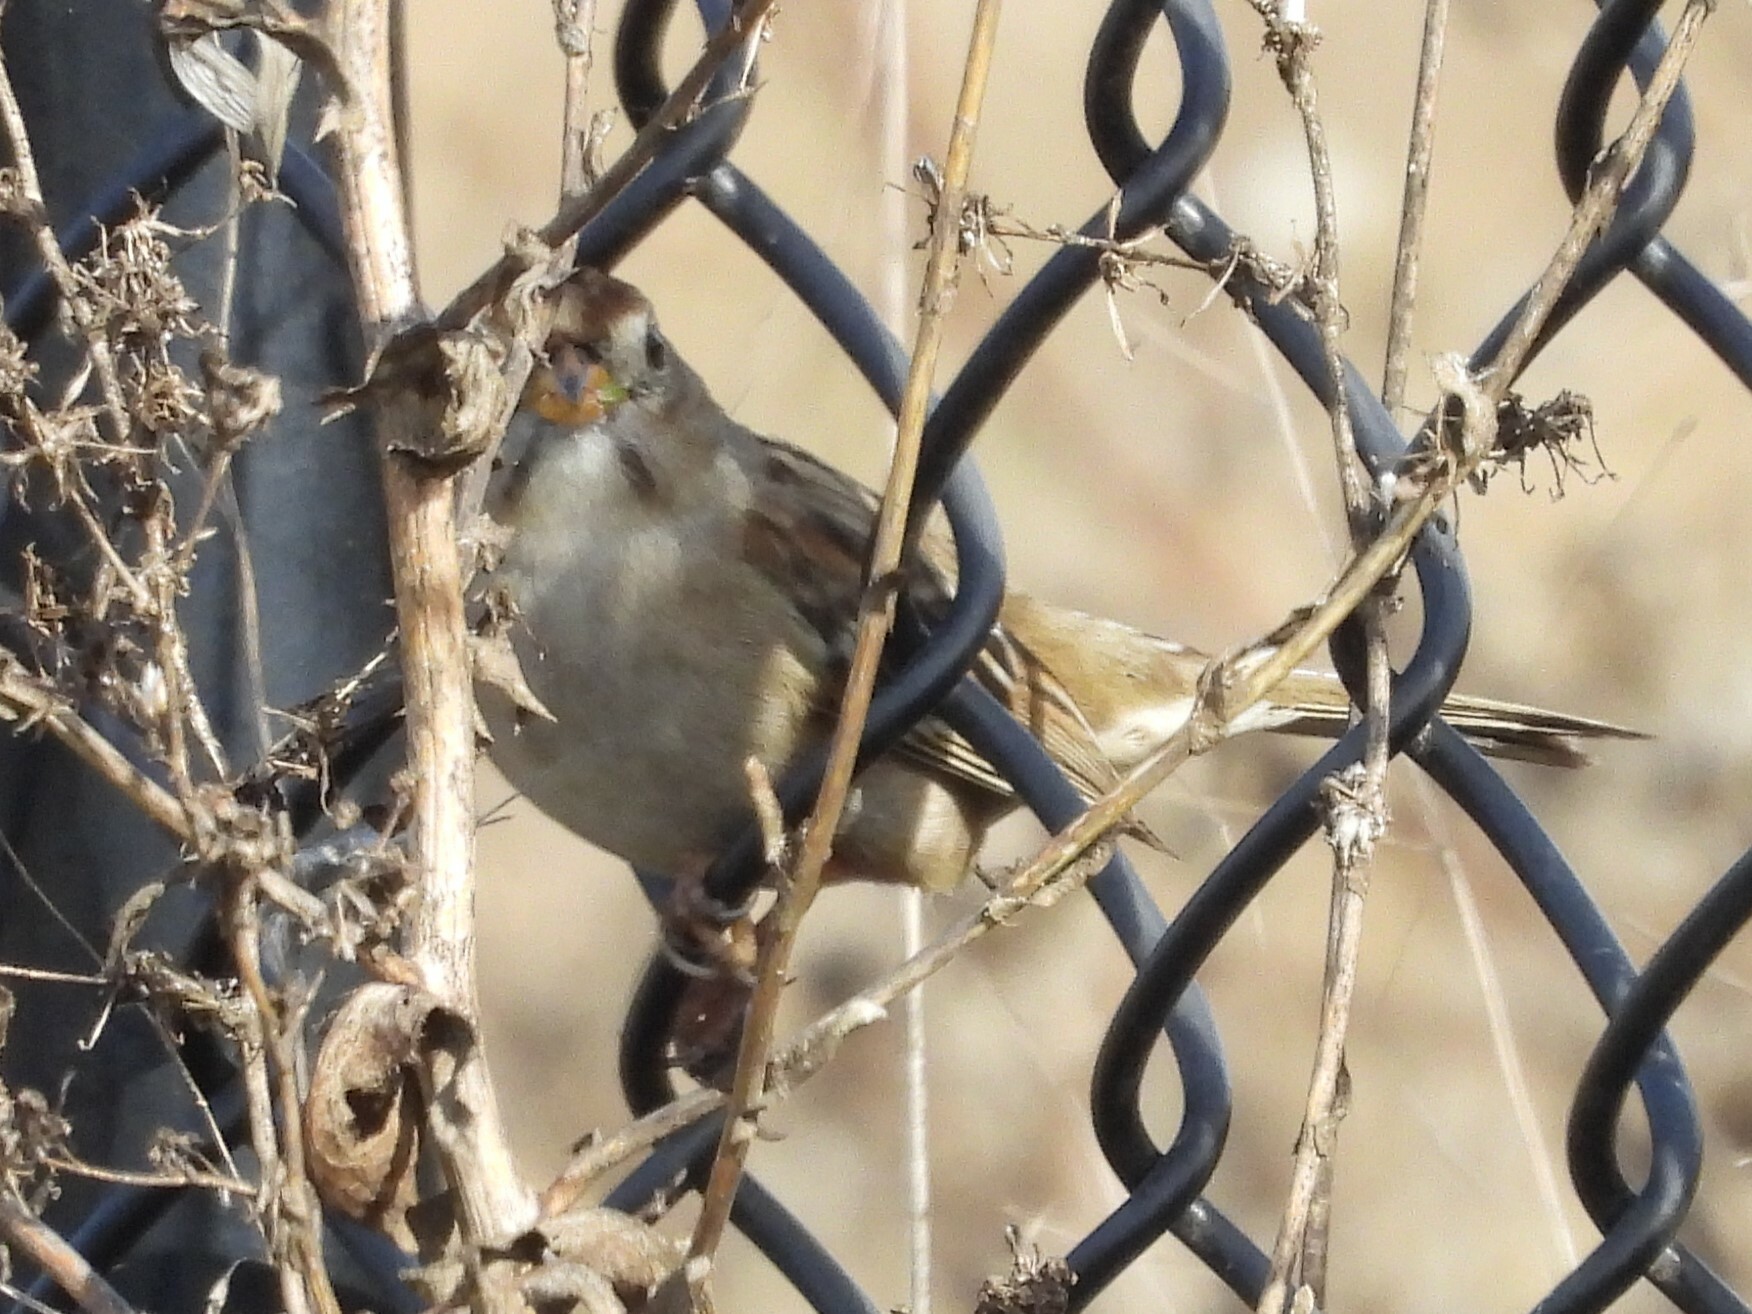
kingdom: Animalia
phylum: Chordata
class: Aves
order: Passeriformes
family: Passerellidae
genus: Zonotrichia
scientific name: Zonotrichia leucophrys
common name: White-crowned sparrow
